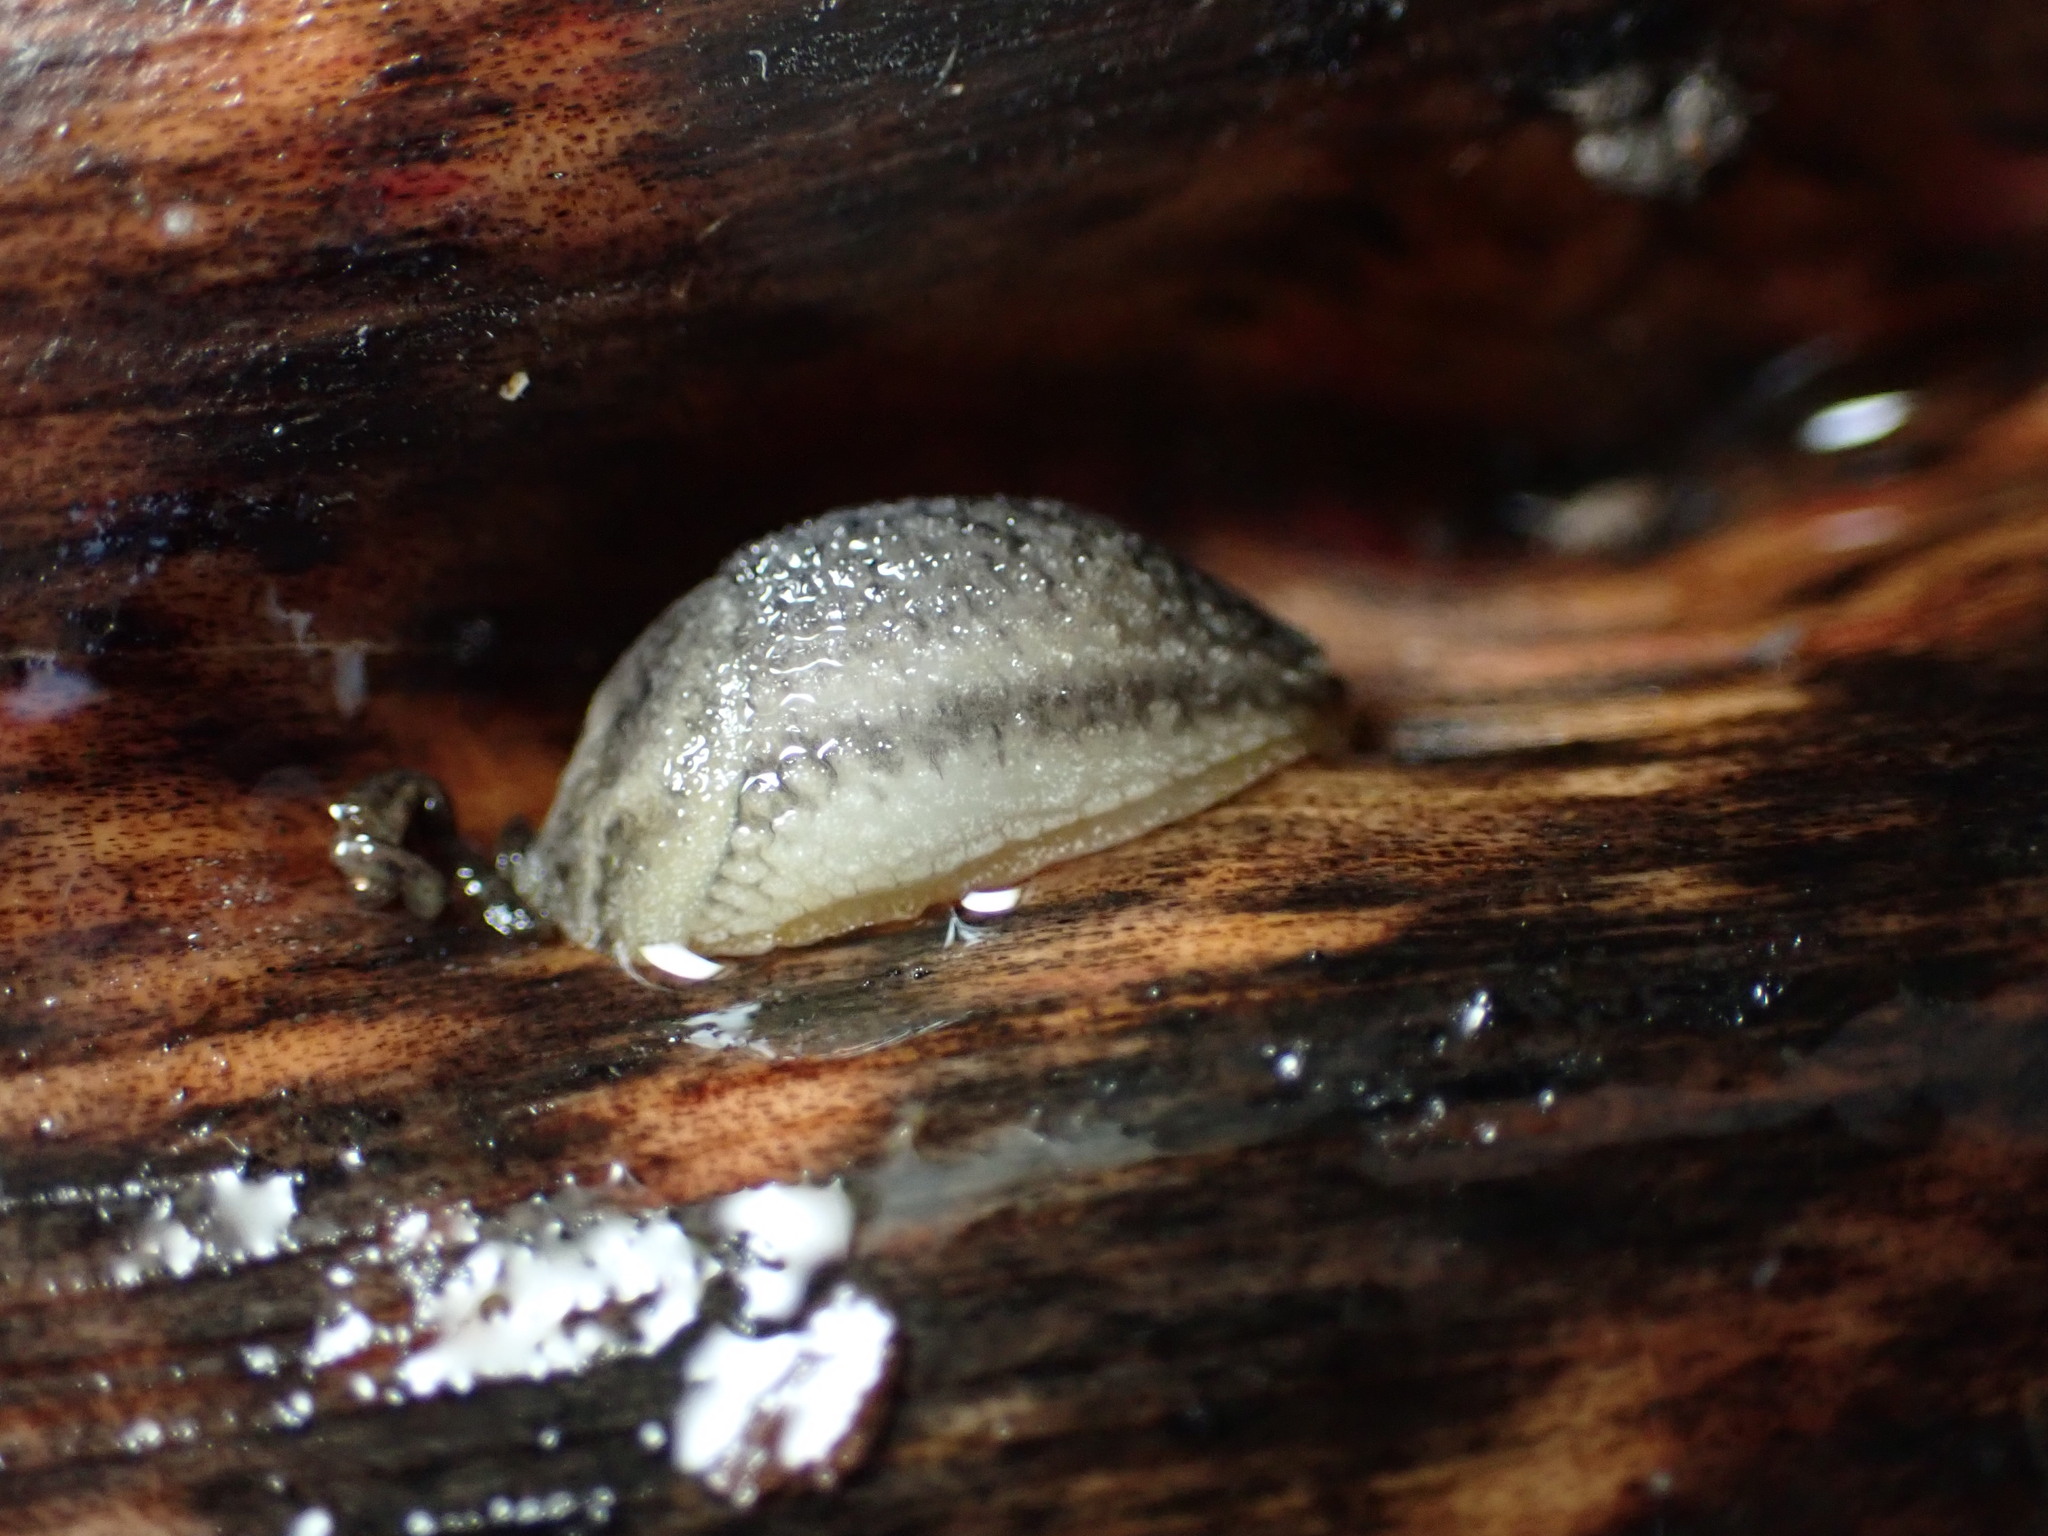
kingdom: Animalia
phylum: Mollusca
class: Gastropoda
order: Stylommatophora
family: Arionidae
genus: Arion
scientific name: Arion intermedius
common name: Hedgehog slug
